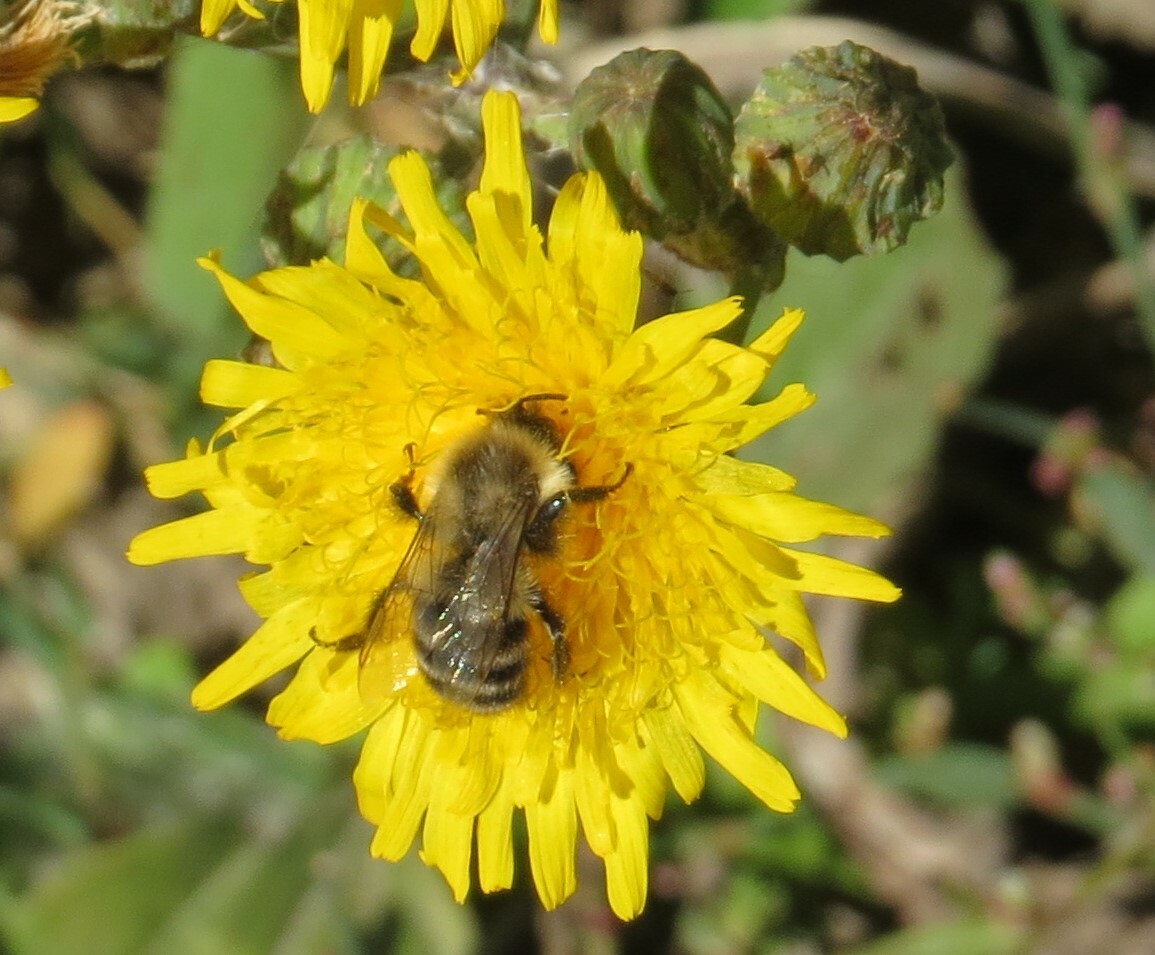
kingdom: Animalia
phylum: Arthropoda
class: Insecta
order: Hymenoptera
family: Apidae
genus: Bombus
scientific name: Bombus impatiens
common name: Common eastern bumble bee
